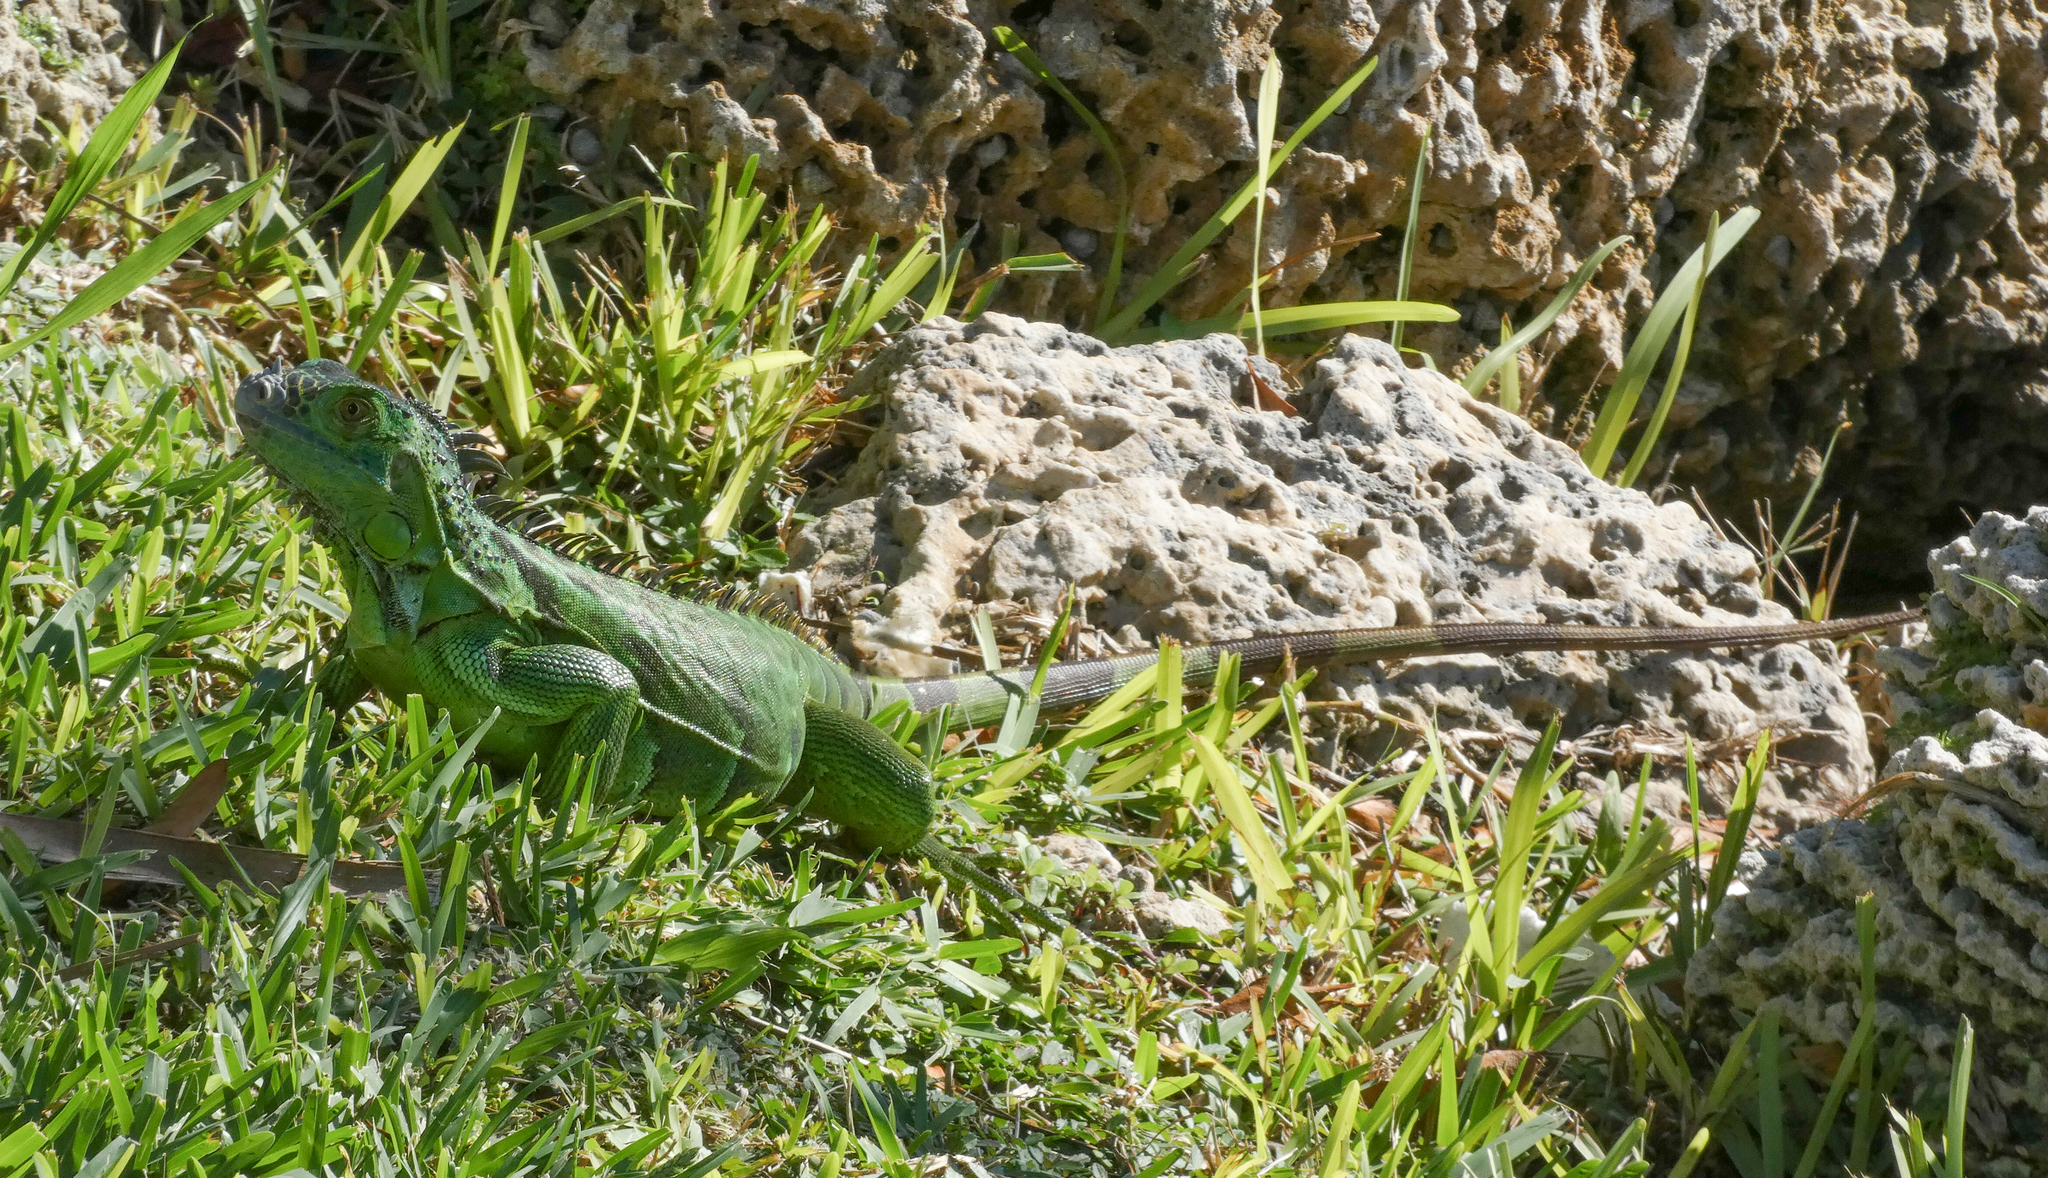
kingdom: Animalia
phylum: Chordata
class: Squamata
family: Iguanidae
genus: Iguana
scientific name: Iguana iguana
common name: Green iguana
